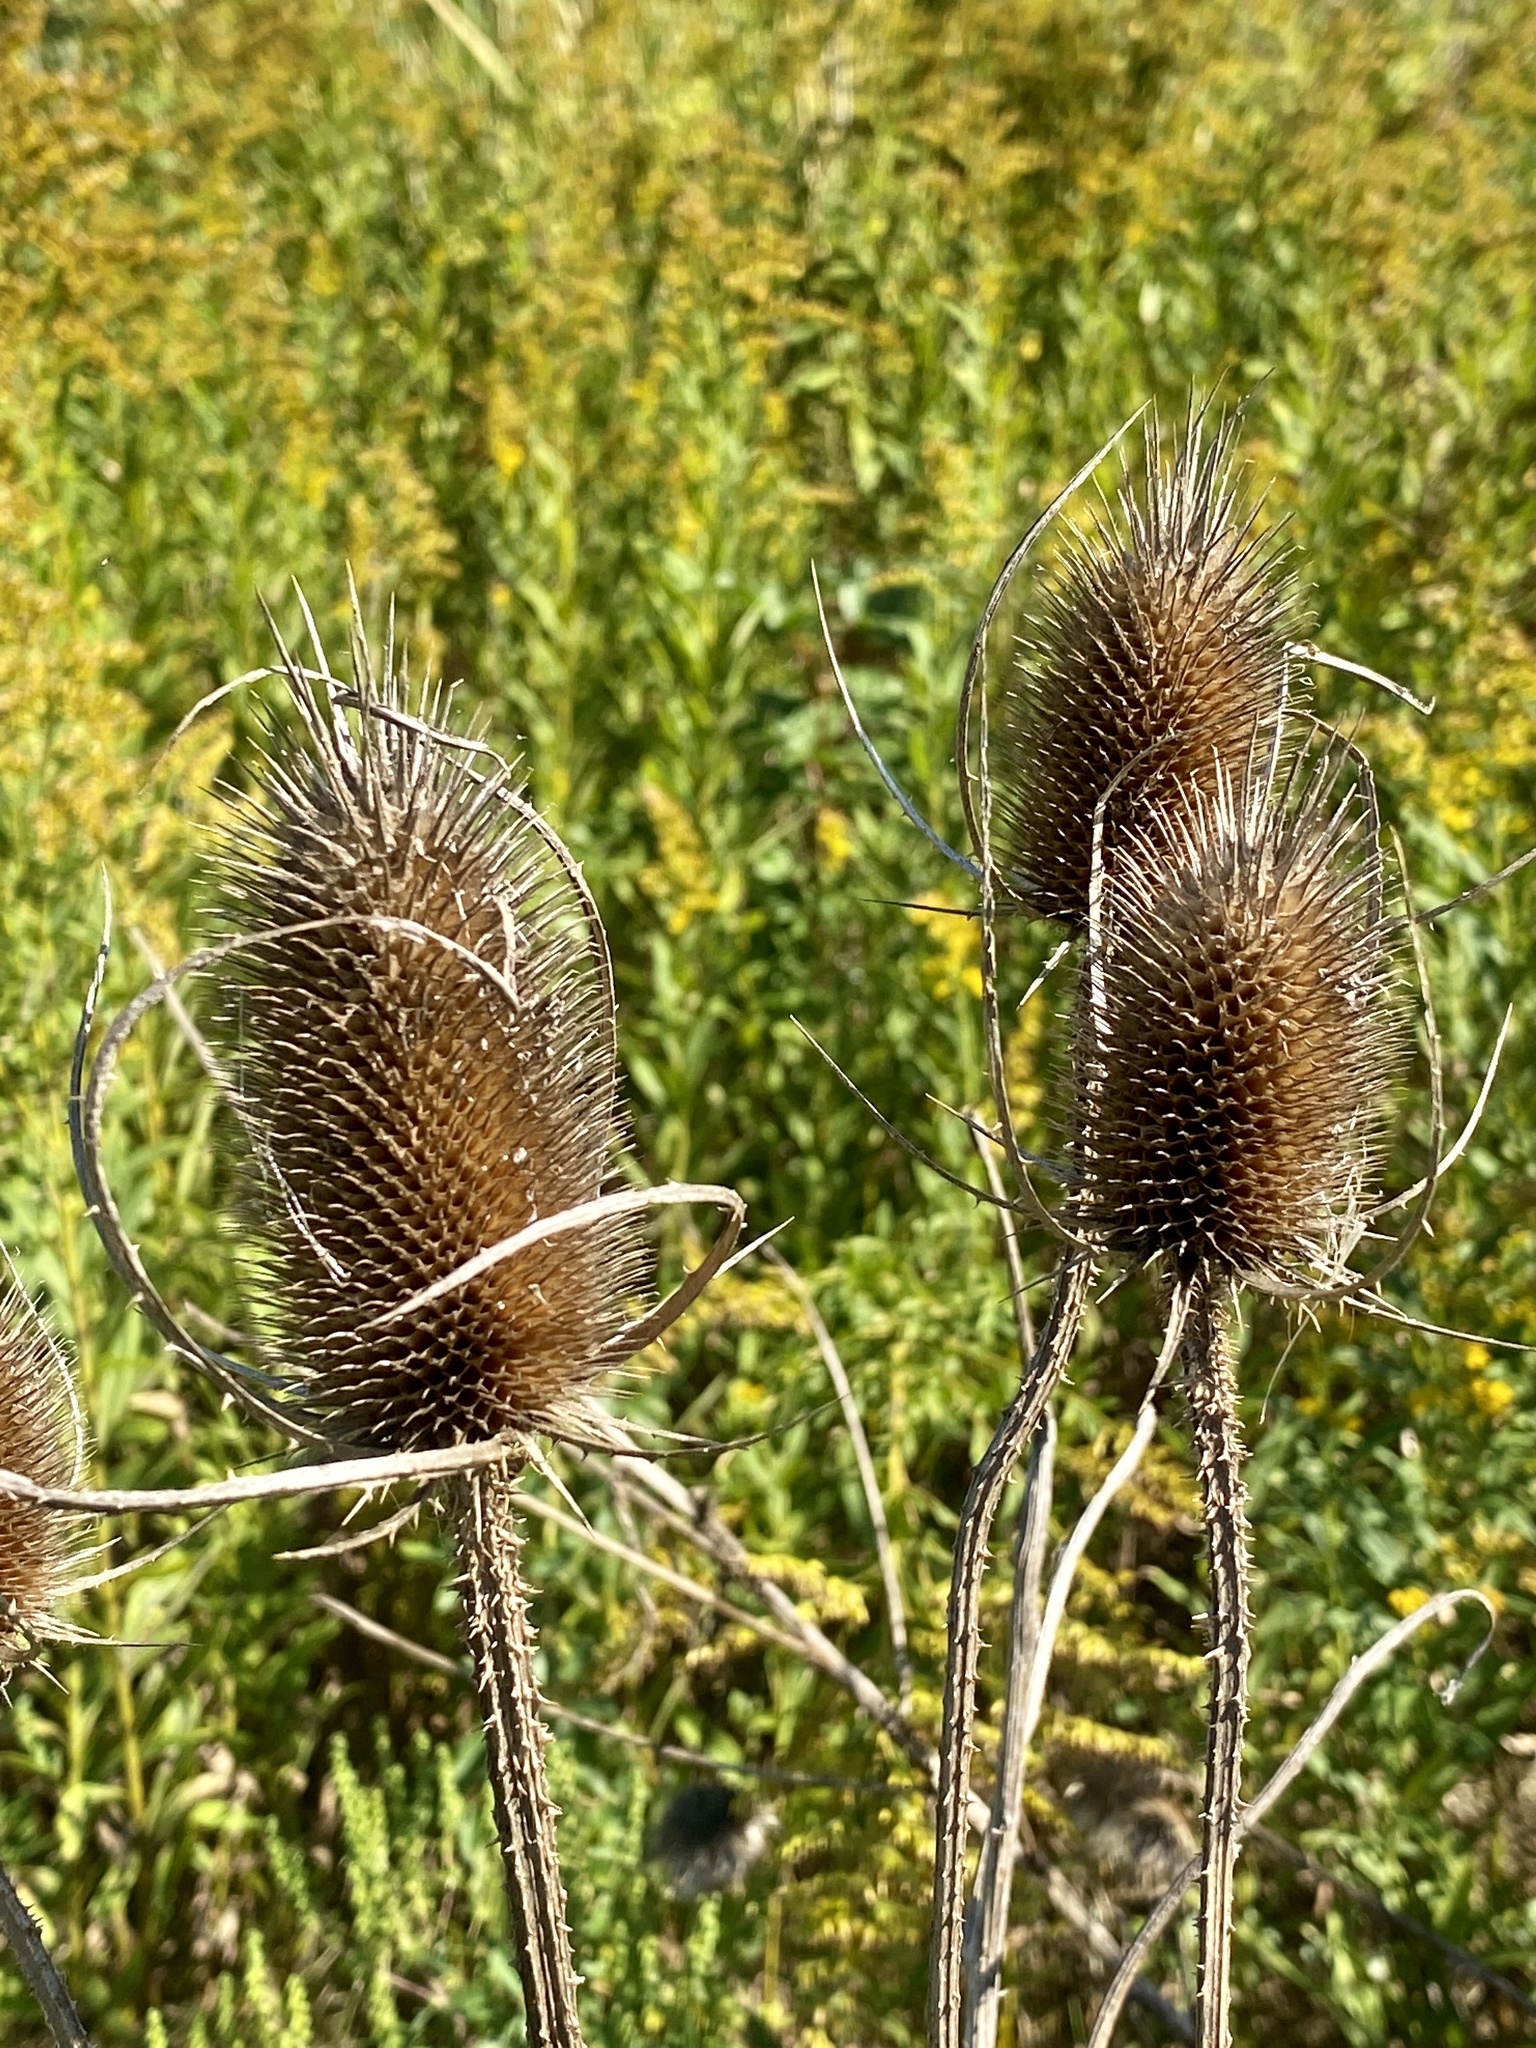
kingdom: Plantae
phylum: Tracheophyta
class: Magnoliopsida
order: Dipsacales
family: Caprifoliaceae
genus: Dipsacus
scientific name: Dipsacus fullonum
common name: Teasel
